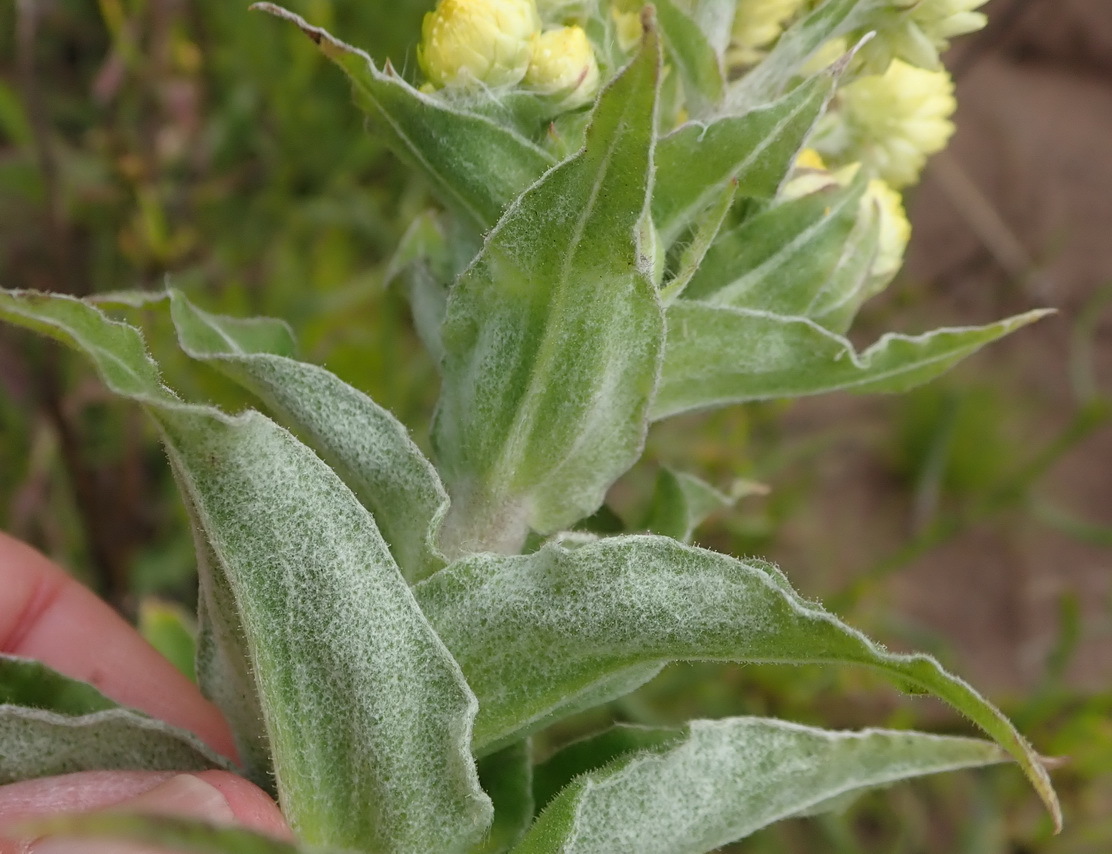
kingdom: Plantae
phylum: Tracheophyta
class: Magnoliopsida
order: Asterales
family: Asteraceae
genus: Helichrysum
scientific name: Helichrysum foetidum
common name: Stinking everlasting
